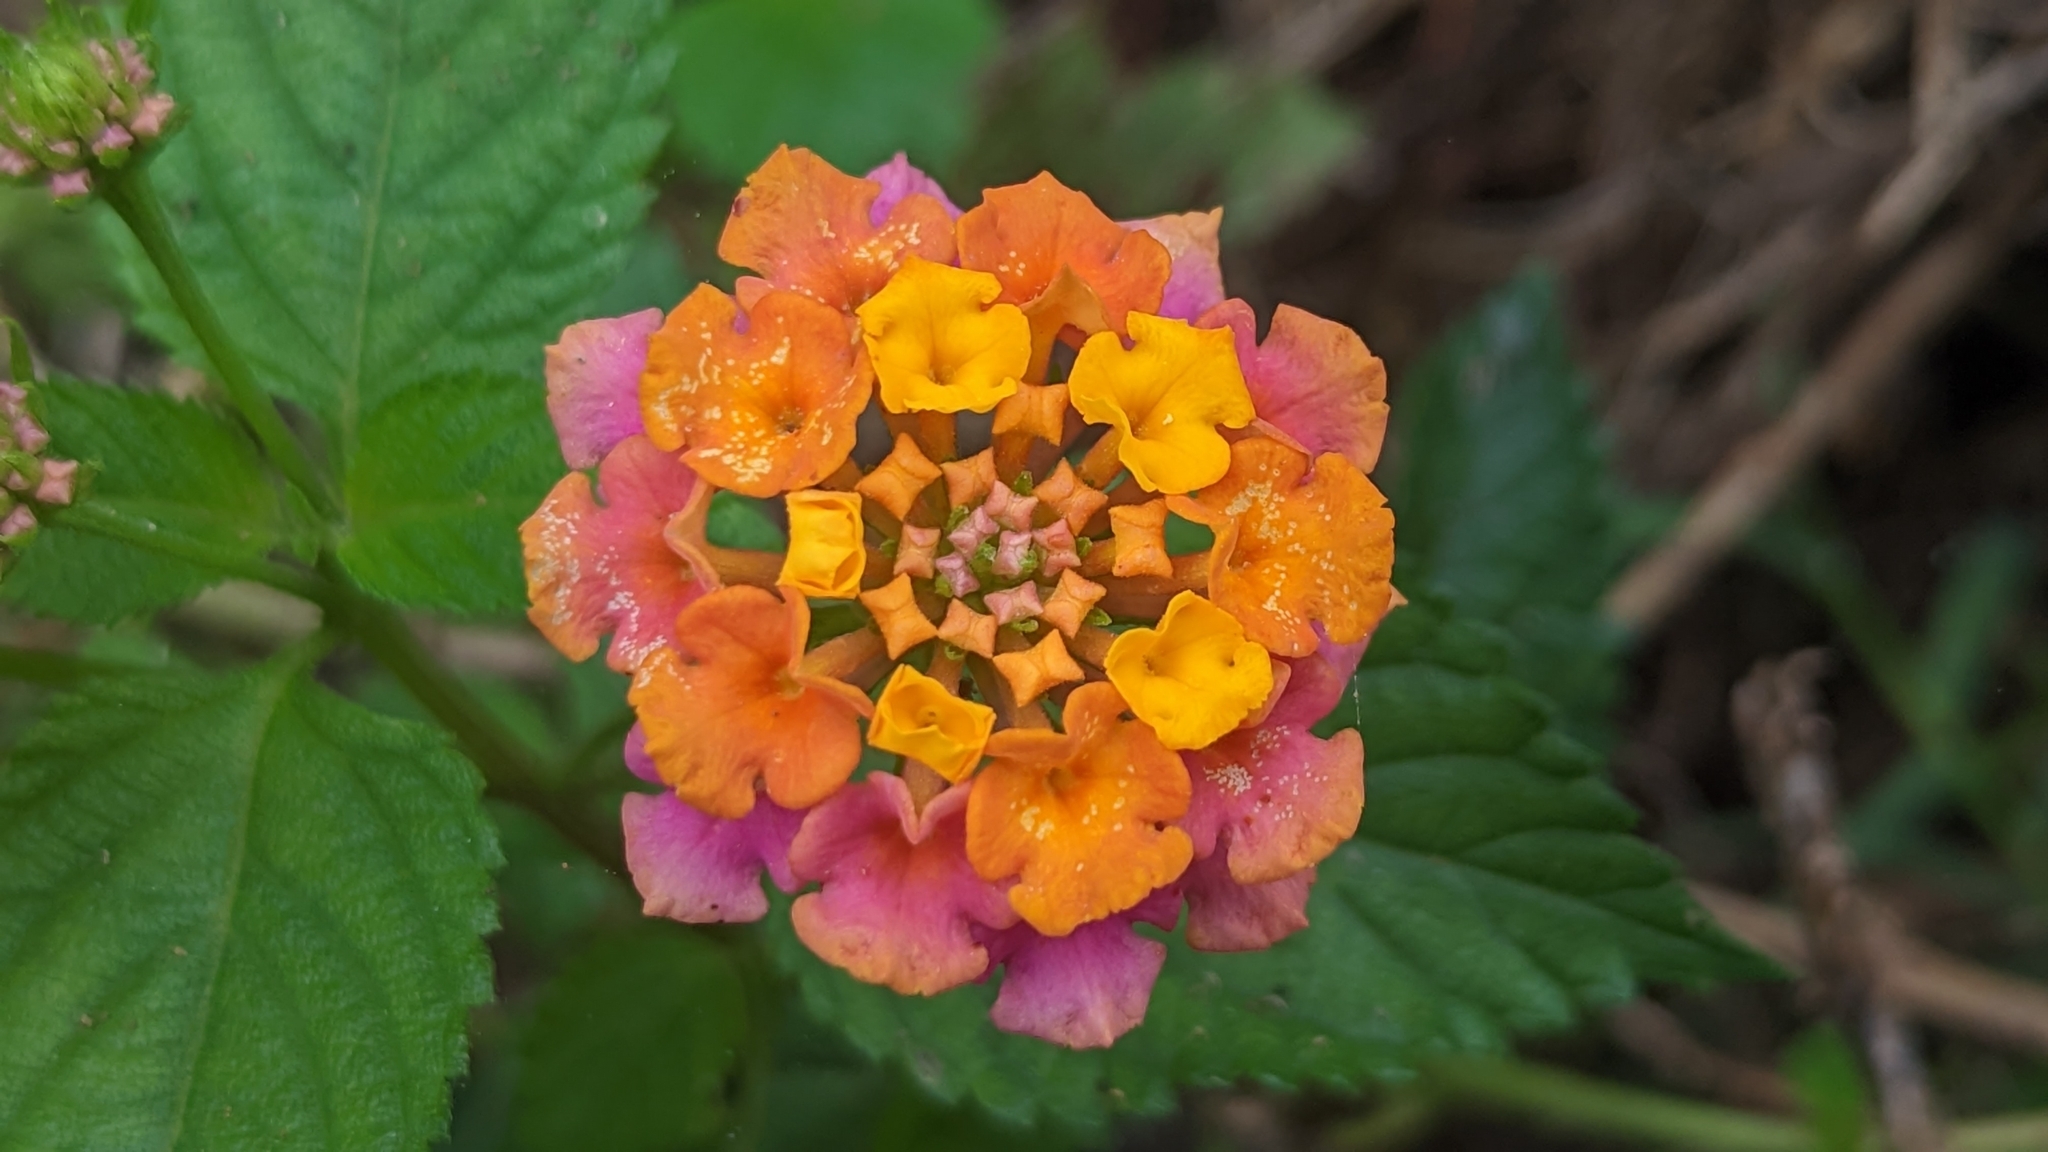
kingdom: Plantae
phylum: Tracheophyta
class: Magnoliopsida
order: Lamiales
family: Verbenaceae
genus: Lantana
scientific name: Lantana strigocamara
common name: Lantana
